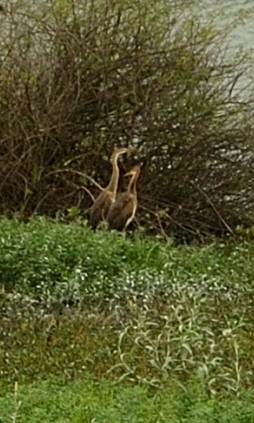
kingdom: Animalia
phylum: Chordata
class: Aves
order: Pelecaniformes
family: Ardeidae
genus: Ardea
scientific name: Ardea purpurea
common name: Purple heron
